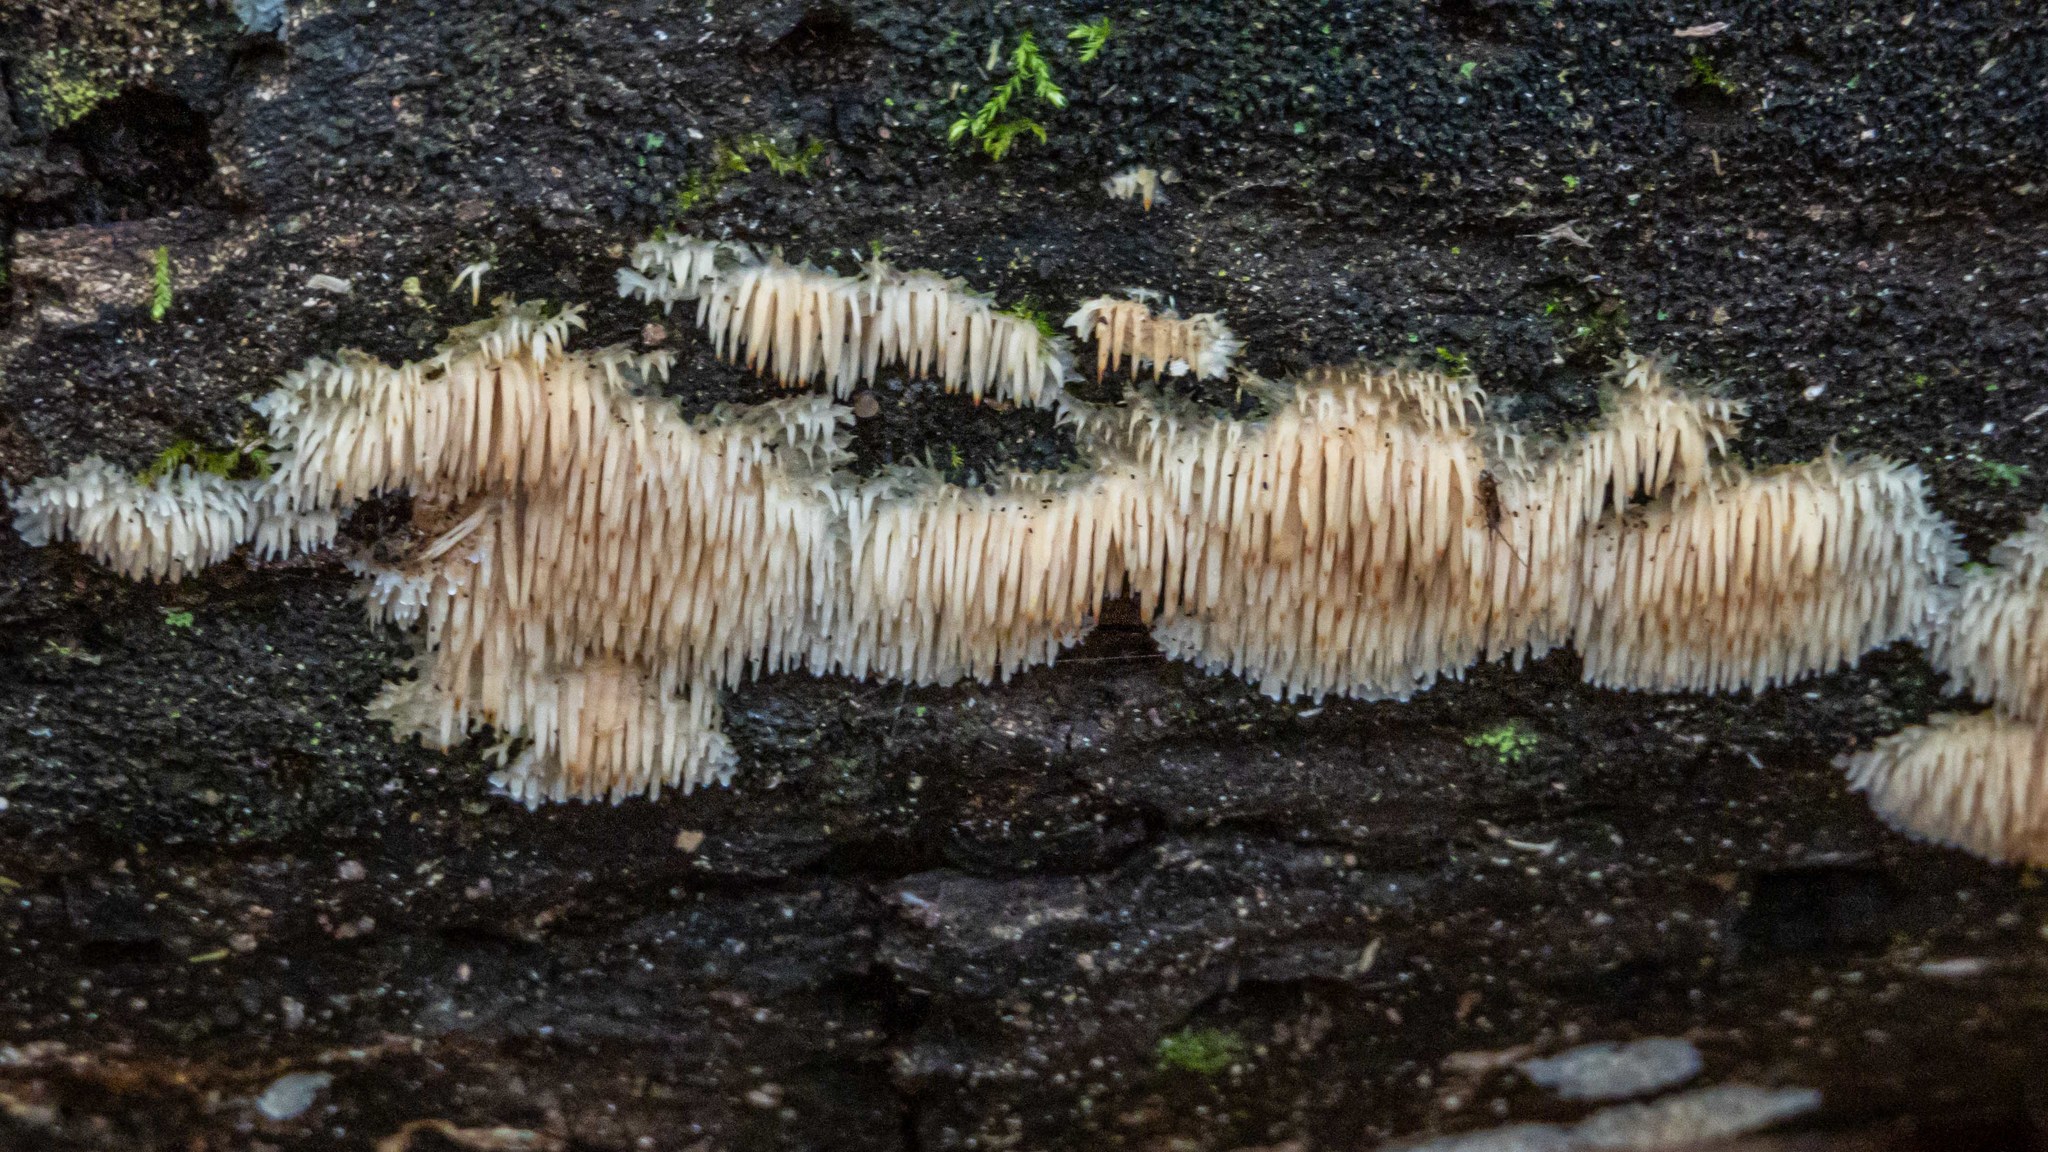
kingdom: Fungi
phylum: Basidiomycota
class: Agaricomycetes
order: Agaricales
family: Radulomycetaceae
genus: Radulomyces
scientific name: Radulomyces copelandii
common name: Asian beauty
